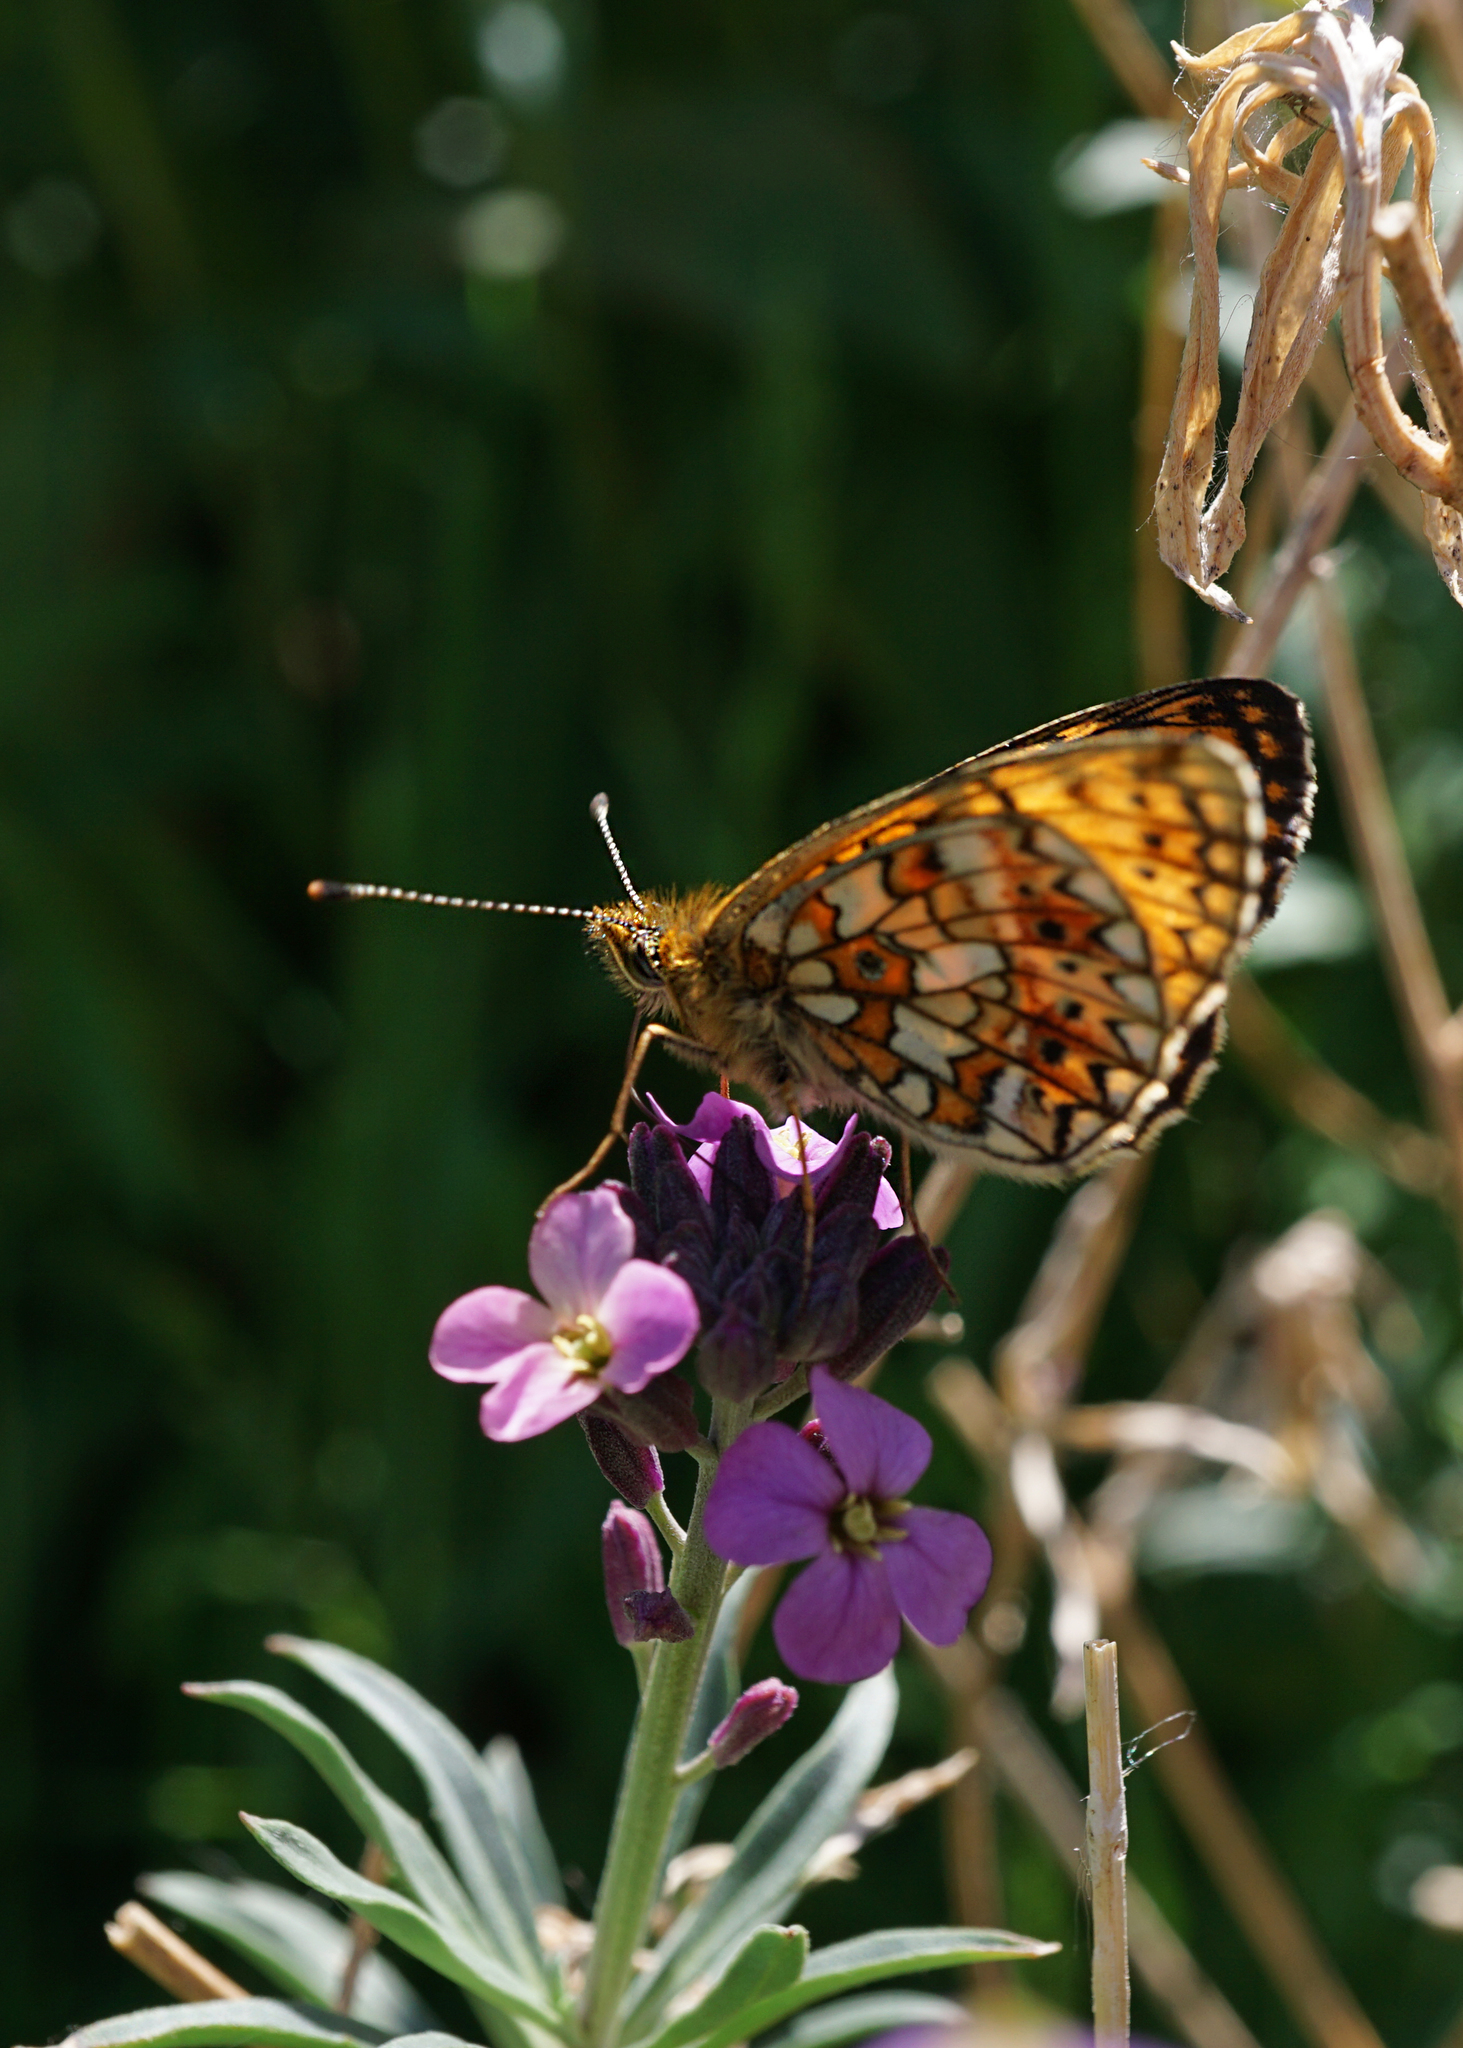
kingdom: Animalia
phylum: Arthropoda
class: Insecta
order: Lepidoptera
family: Nymphalidae
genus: Boloria
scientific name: Boloria selene
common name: Small pearl-bordered fritillary
